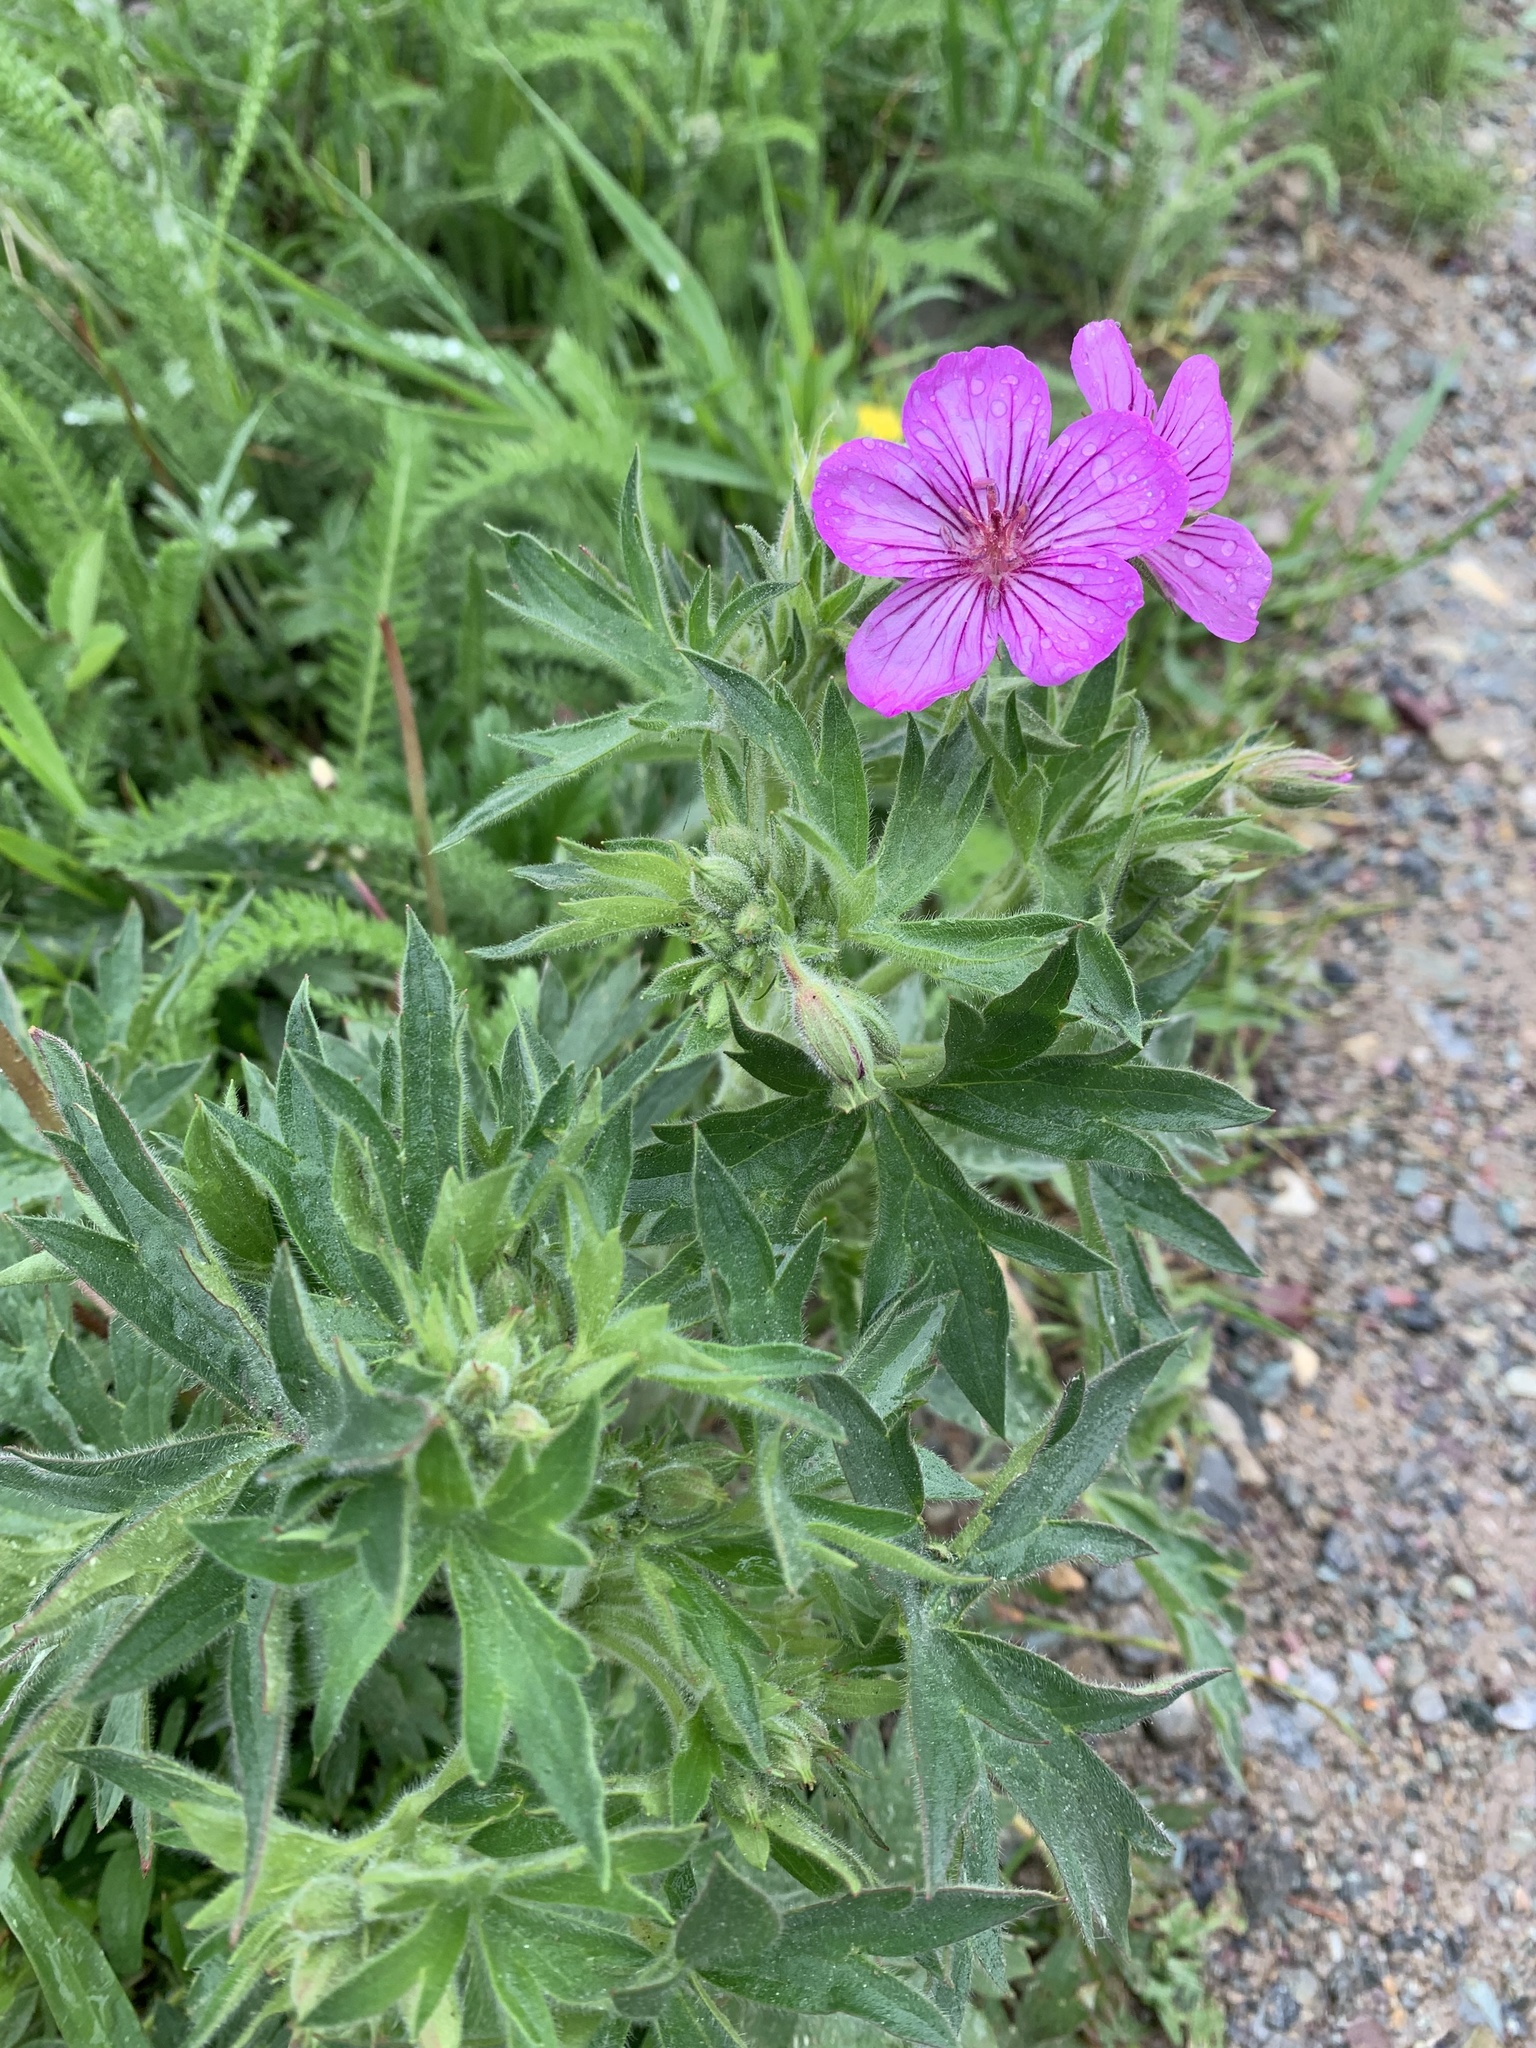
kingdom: Plantae
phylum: Tracheophyta
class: Magnoliopsida
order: Geraniales
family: Geraniaceae
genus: Geranium
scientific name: Geranium viscosissimum
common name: Purple geranium
